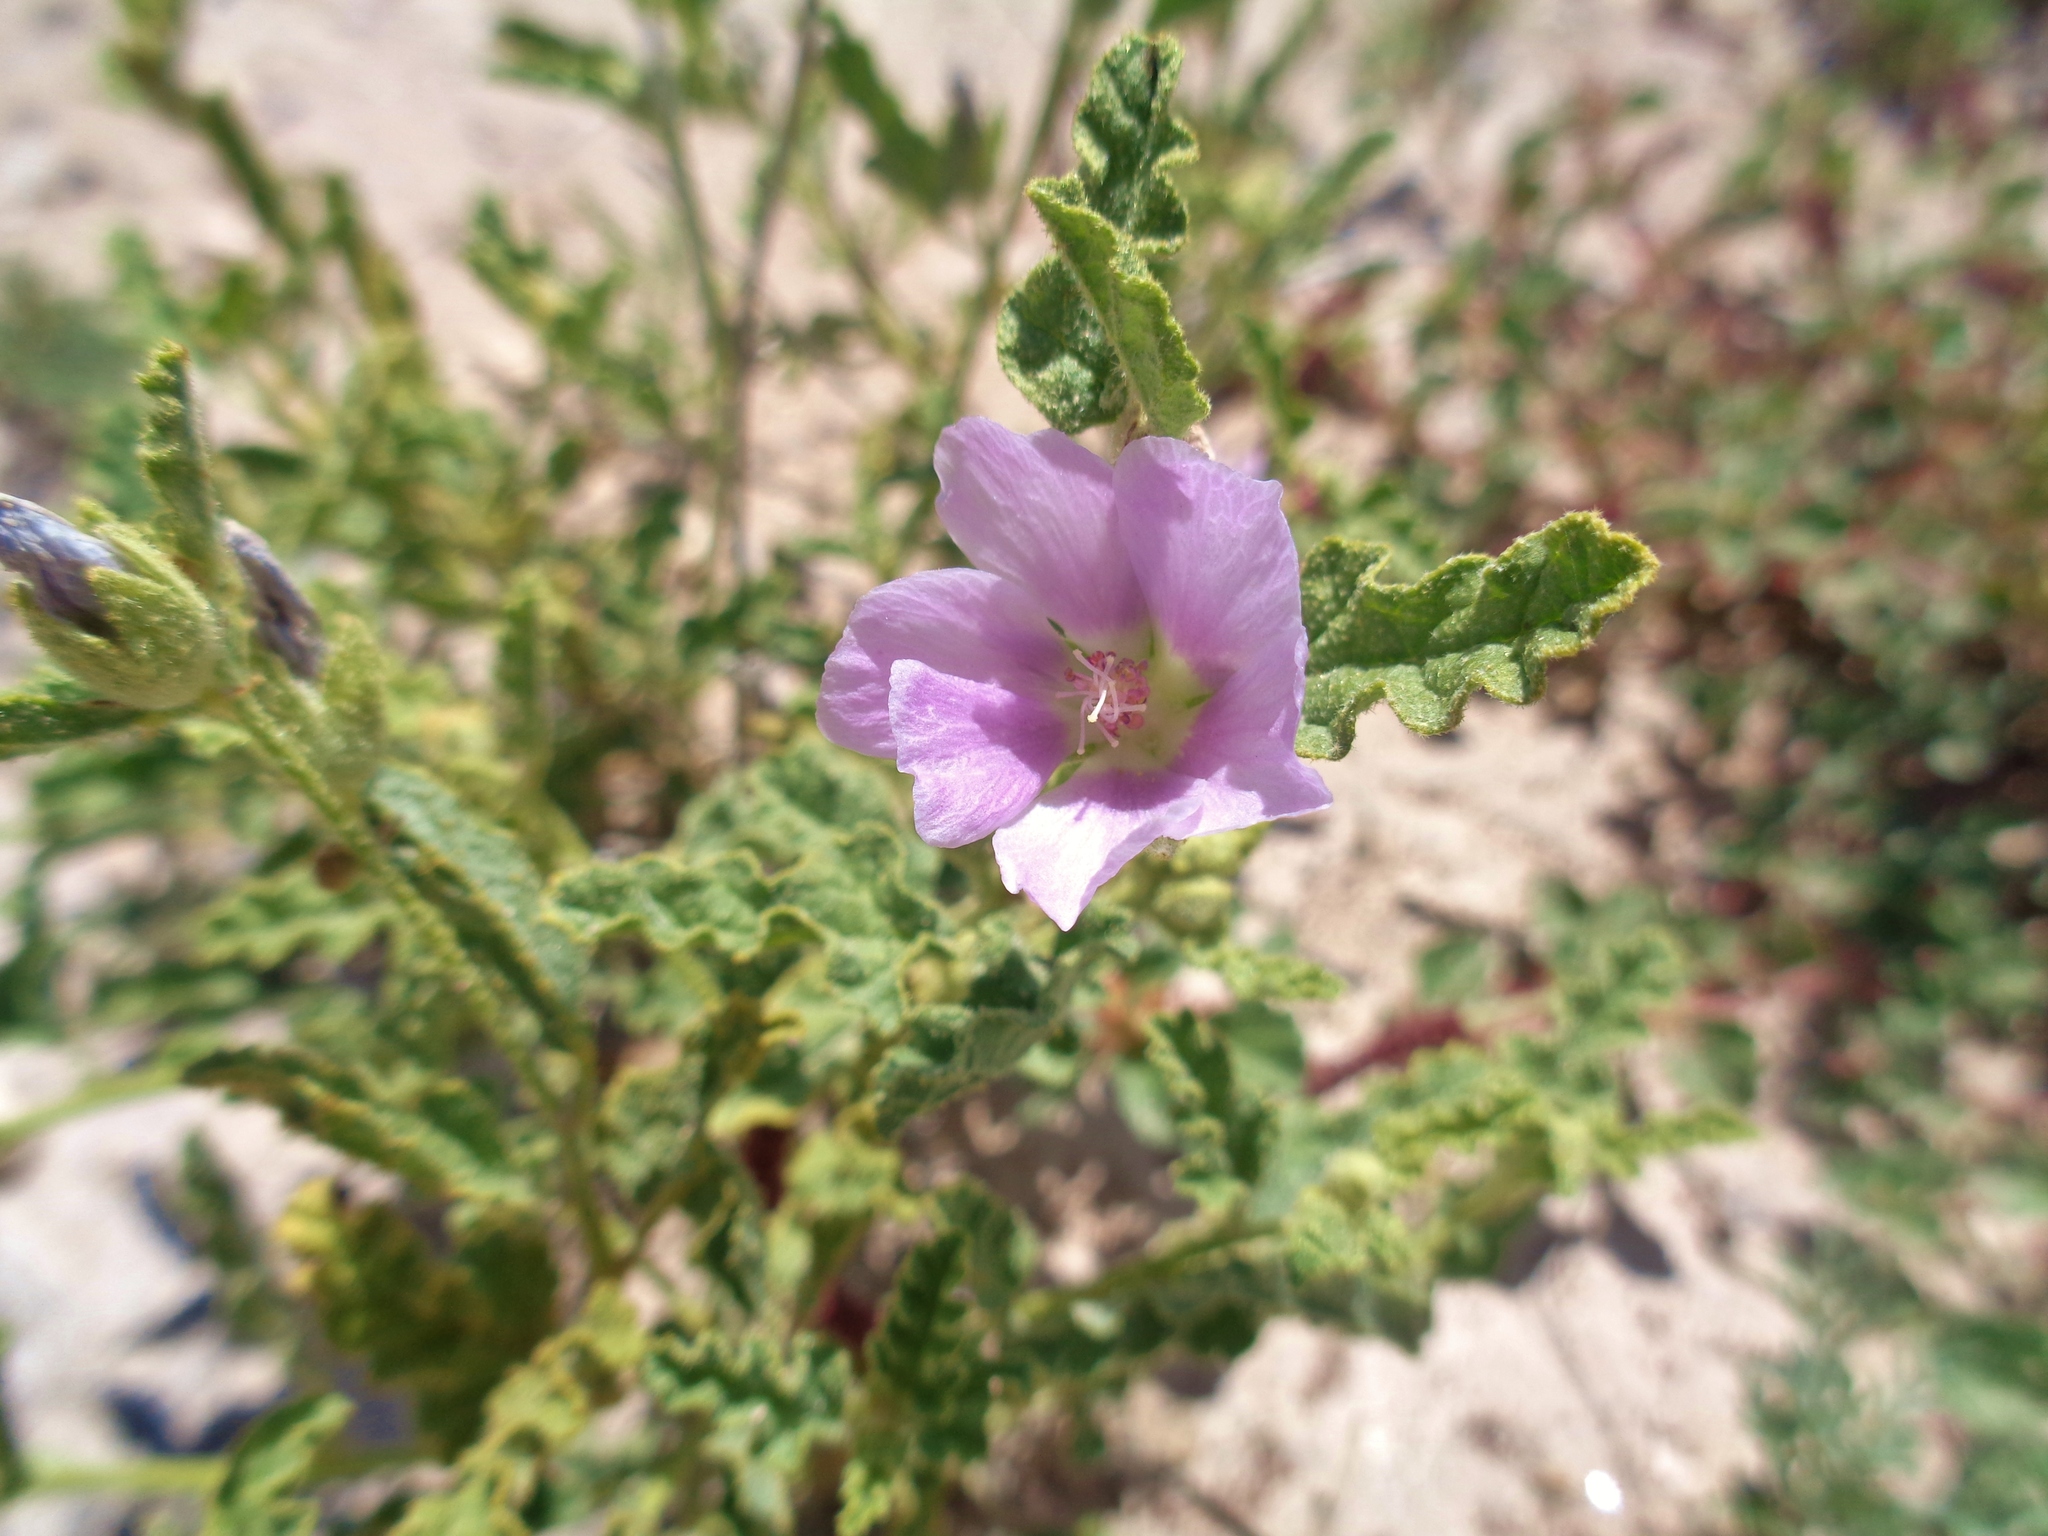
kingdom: Plantae
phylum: Tracheophyta
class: Magnoliopsida
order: Malvales
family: Malvaceae
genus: Sphaeralcea
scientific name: Sphaeralcea angustifolia
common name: Copper globe-mallow
